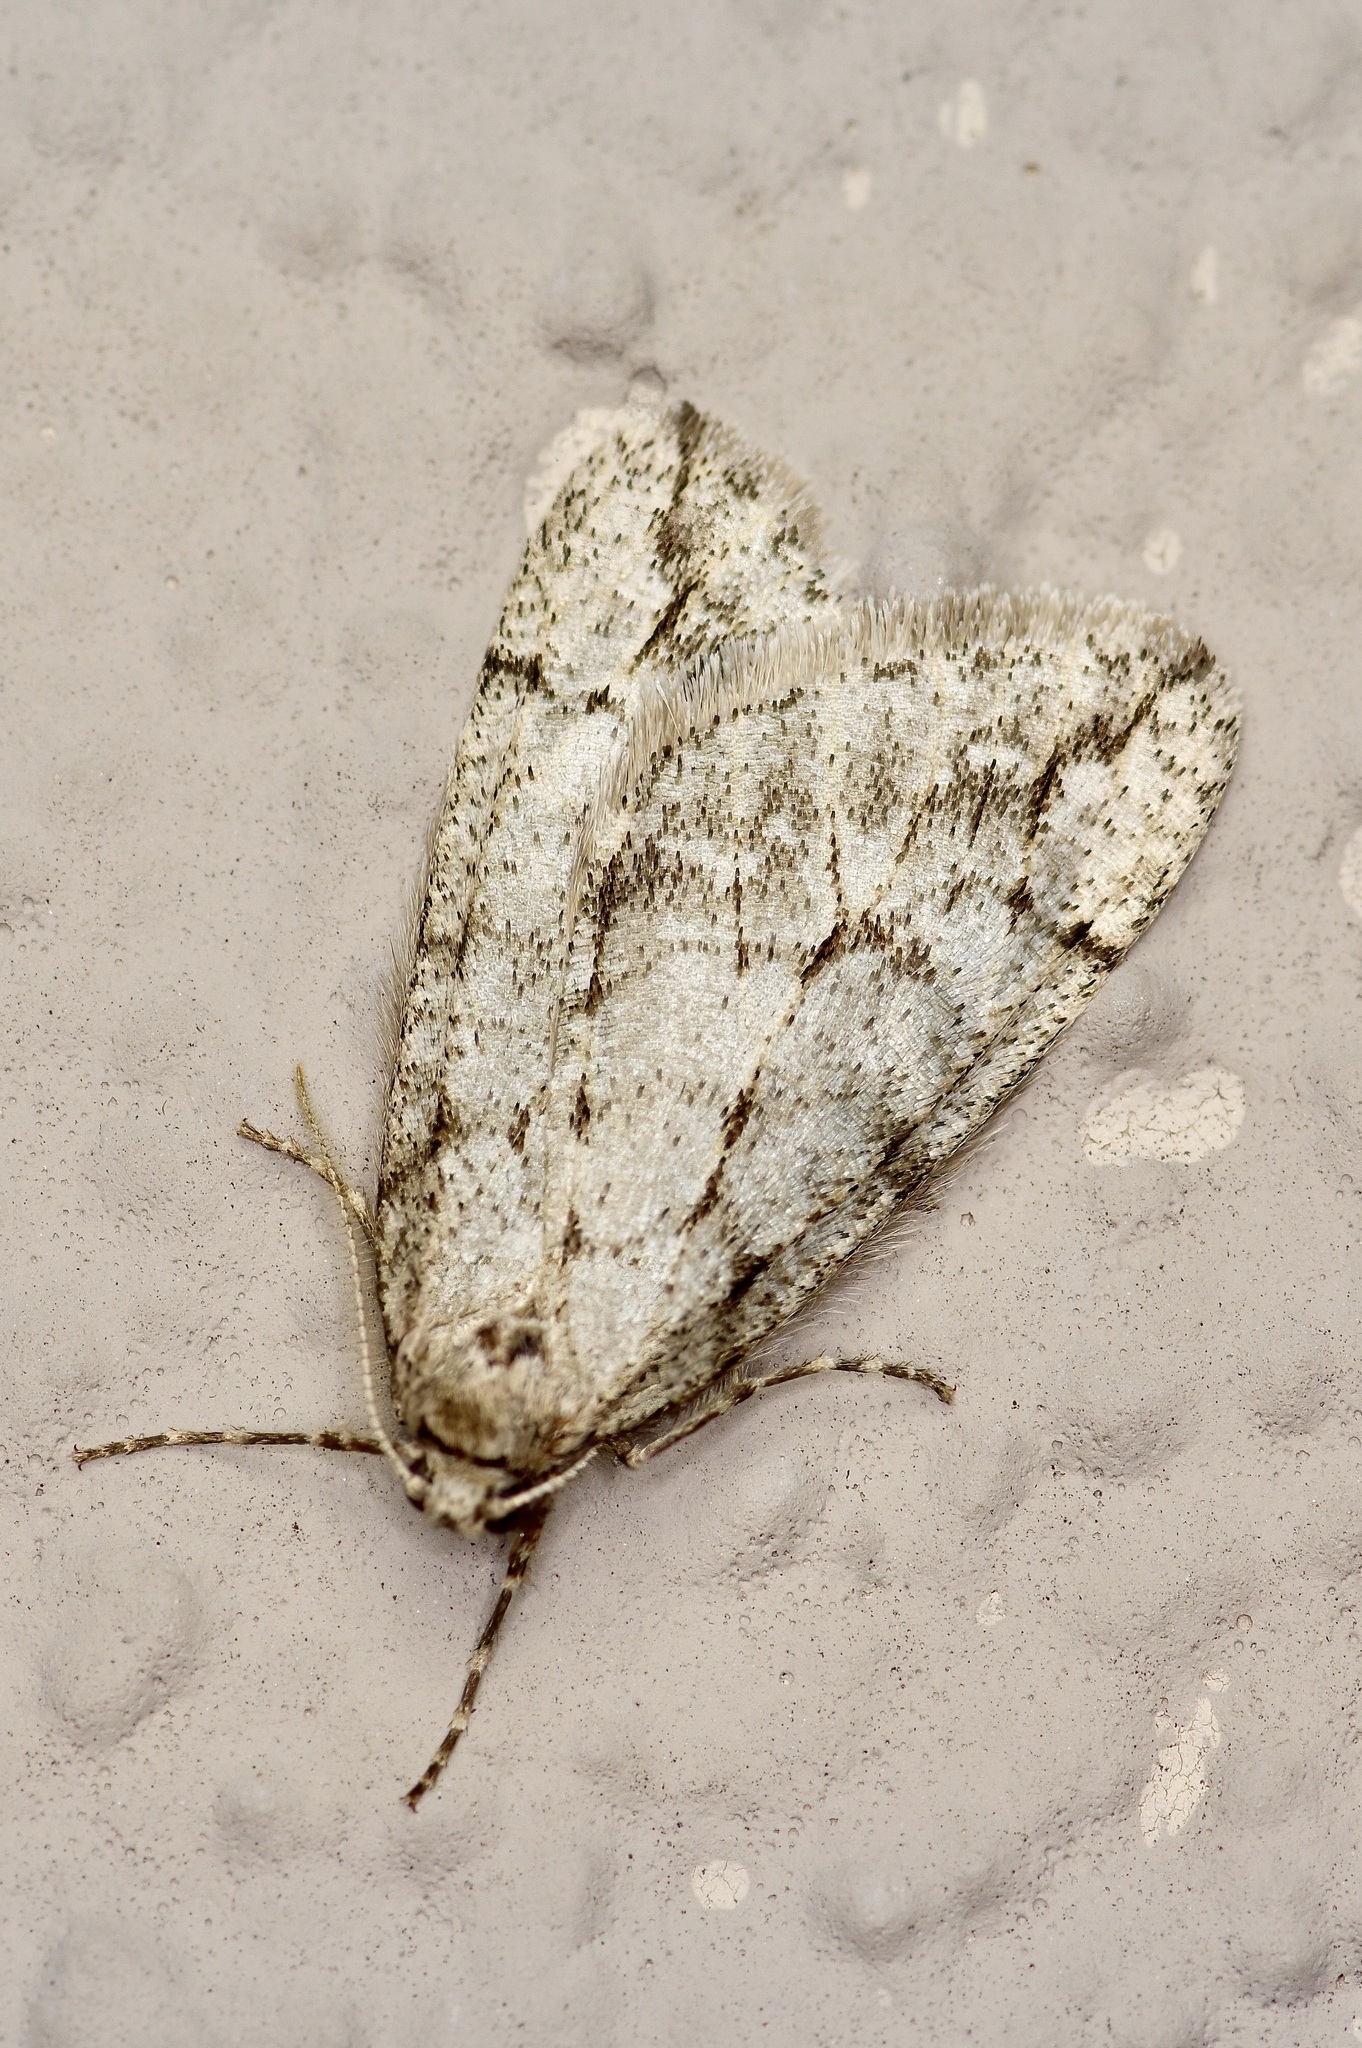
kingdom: Animalia
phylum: Arthropoda
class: Insecta
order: Lepidoptera
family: Geometridae
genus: Paleacrita
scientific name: Paleacrita vernata
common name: Spring cankerworm
